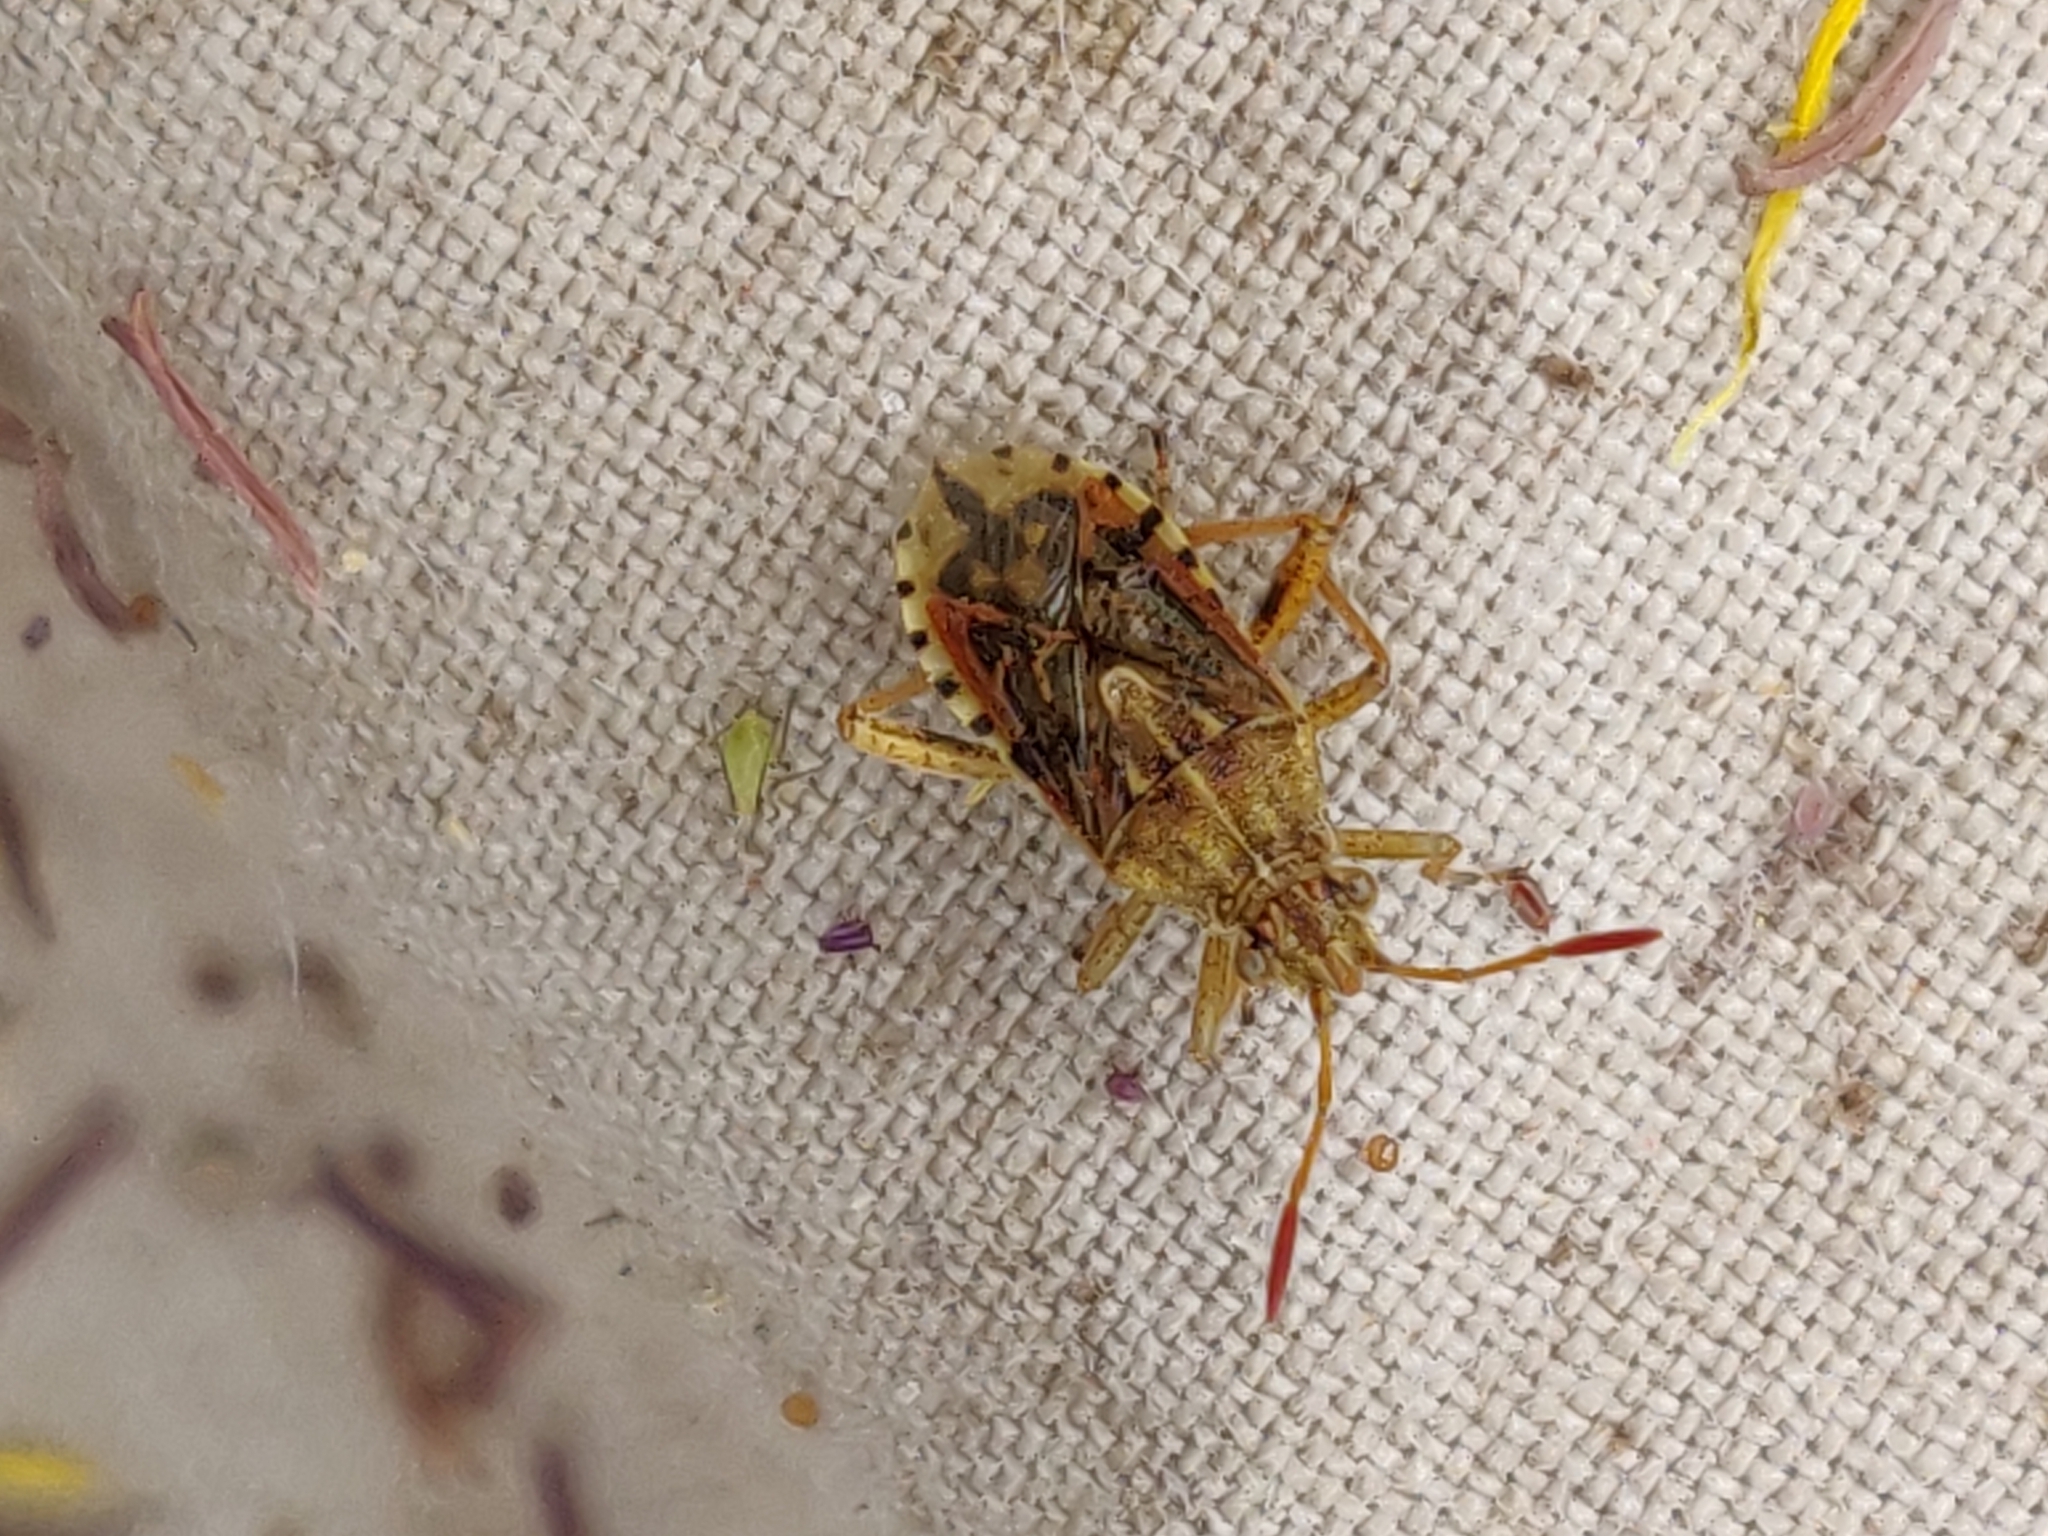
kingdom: Animalia
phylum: Arthropoda
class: Insecta
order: Hemiptera
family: Rhopalidae
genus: Stictopleurus
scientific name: Stictopleurus abutilon
